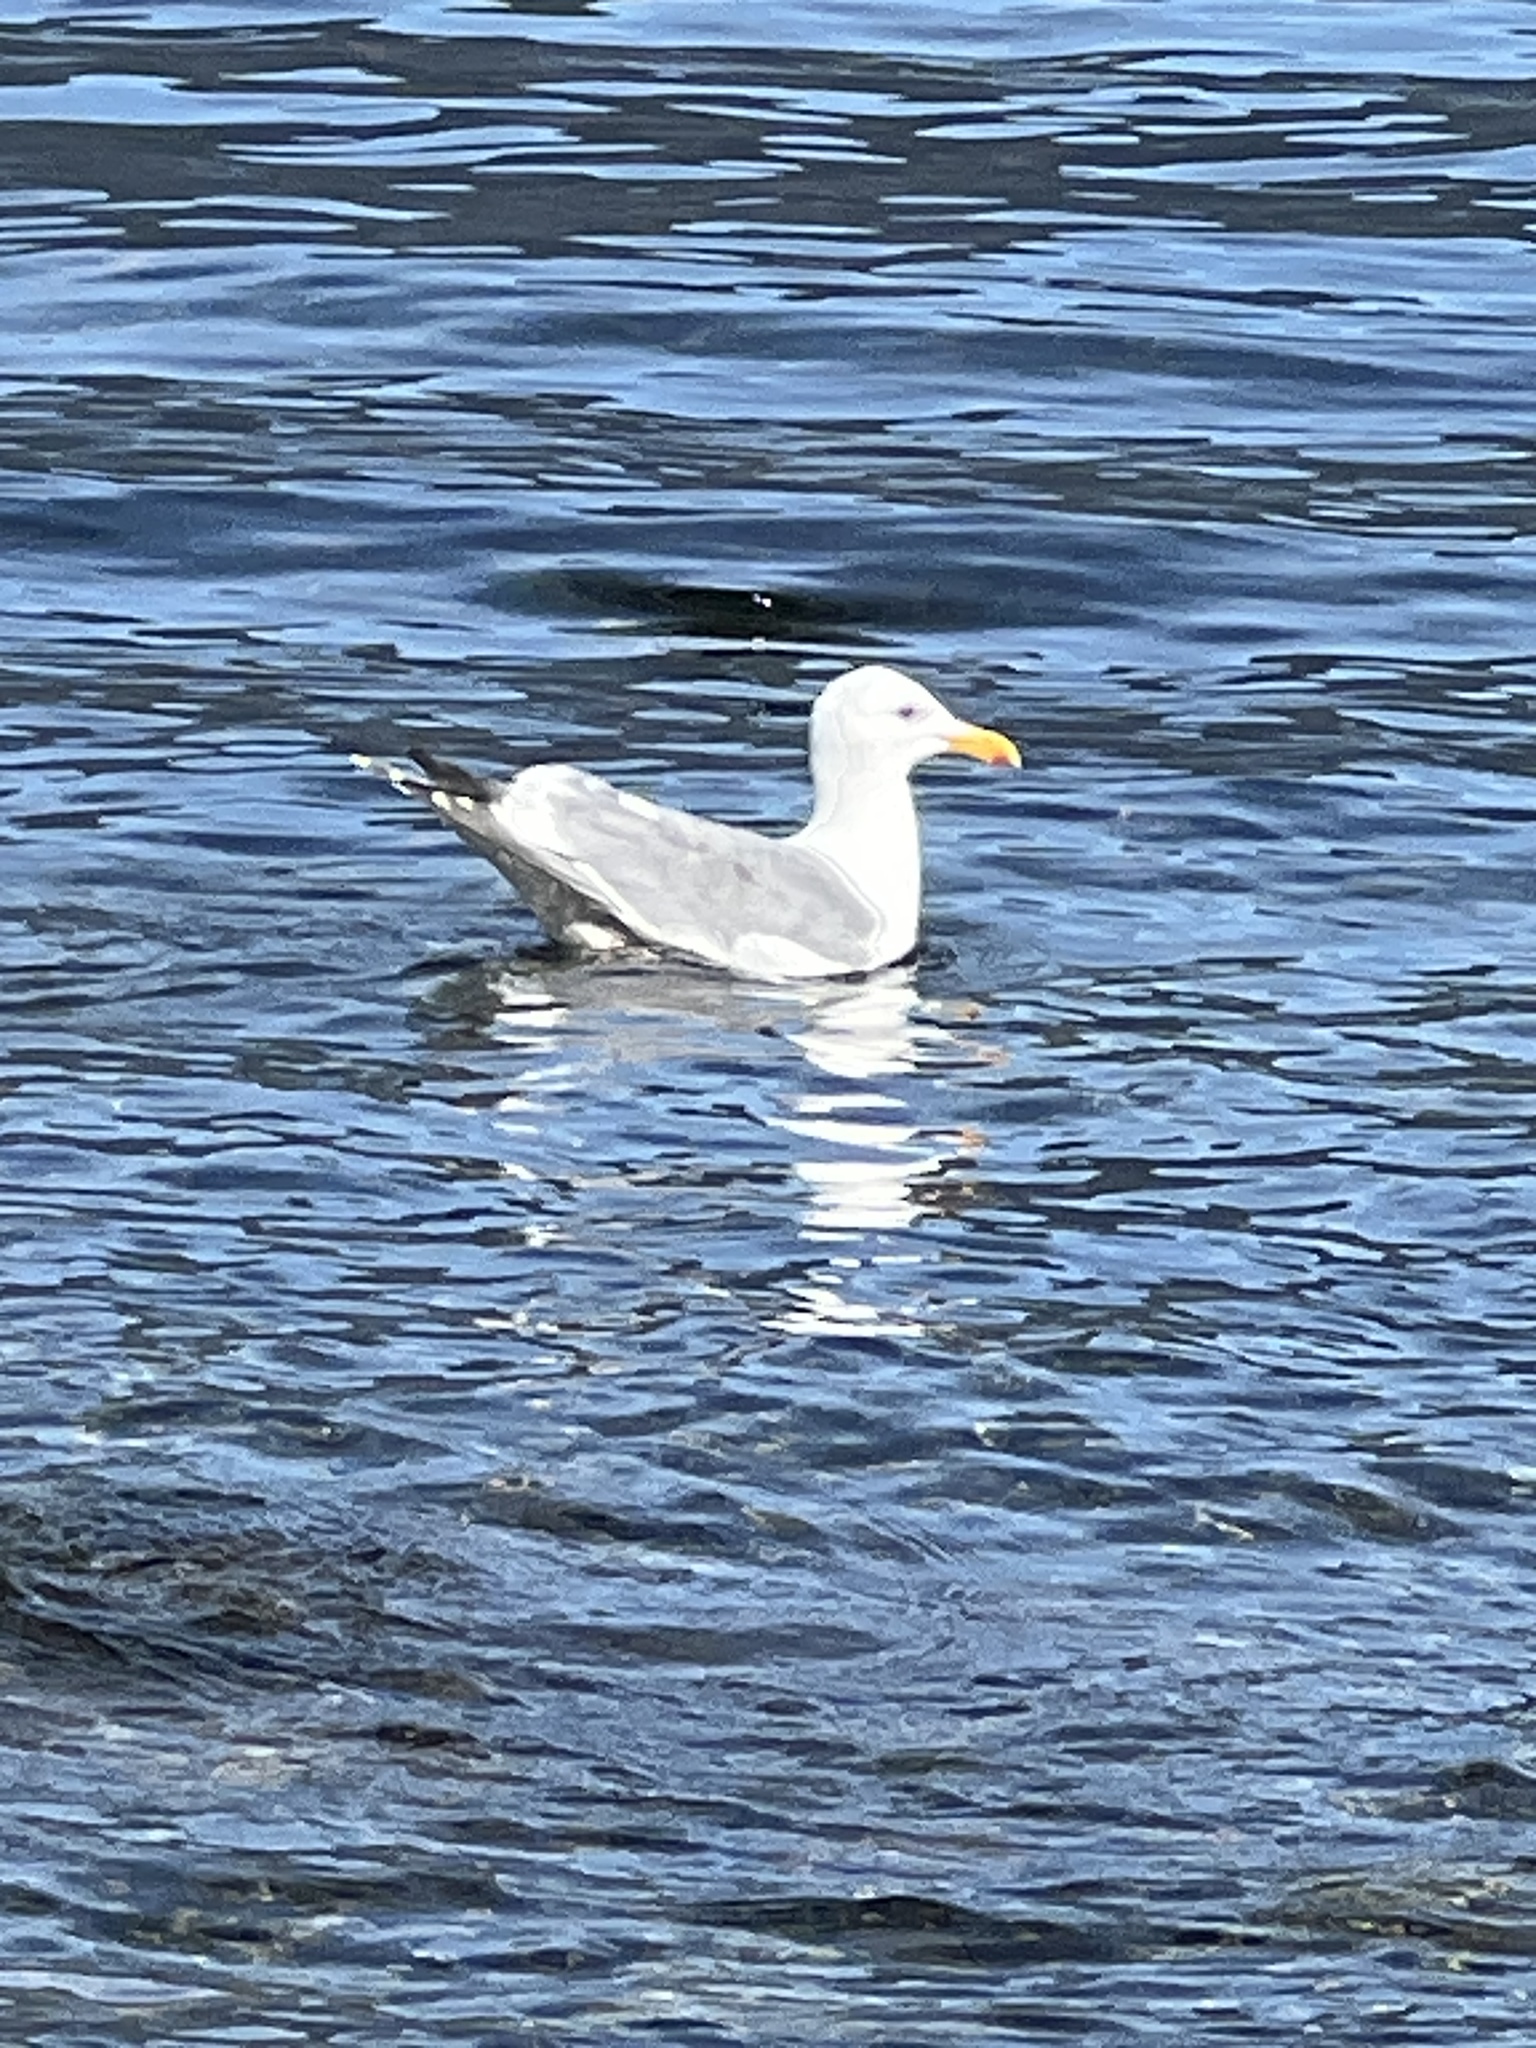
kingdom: Animalia
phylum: Chordata
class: Aves
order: Charadriiformes
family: Laridae
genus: Larus
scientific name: Larus
